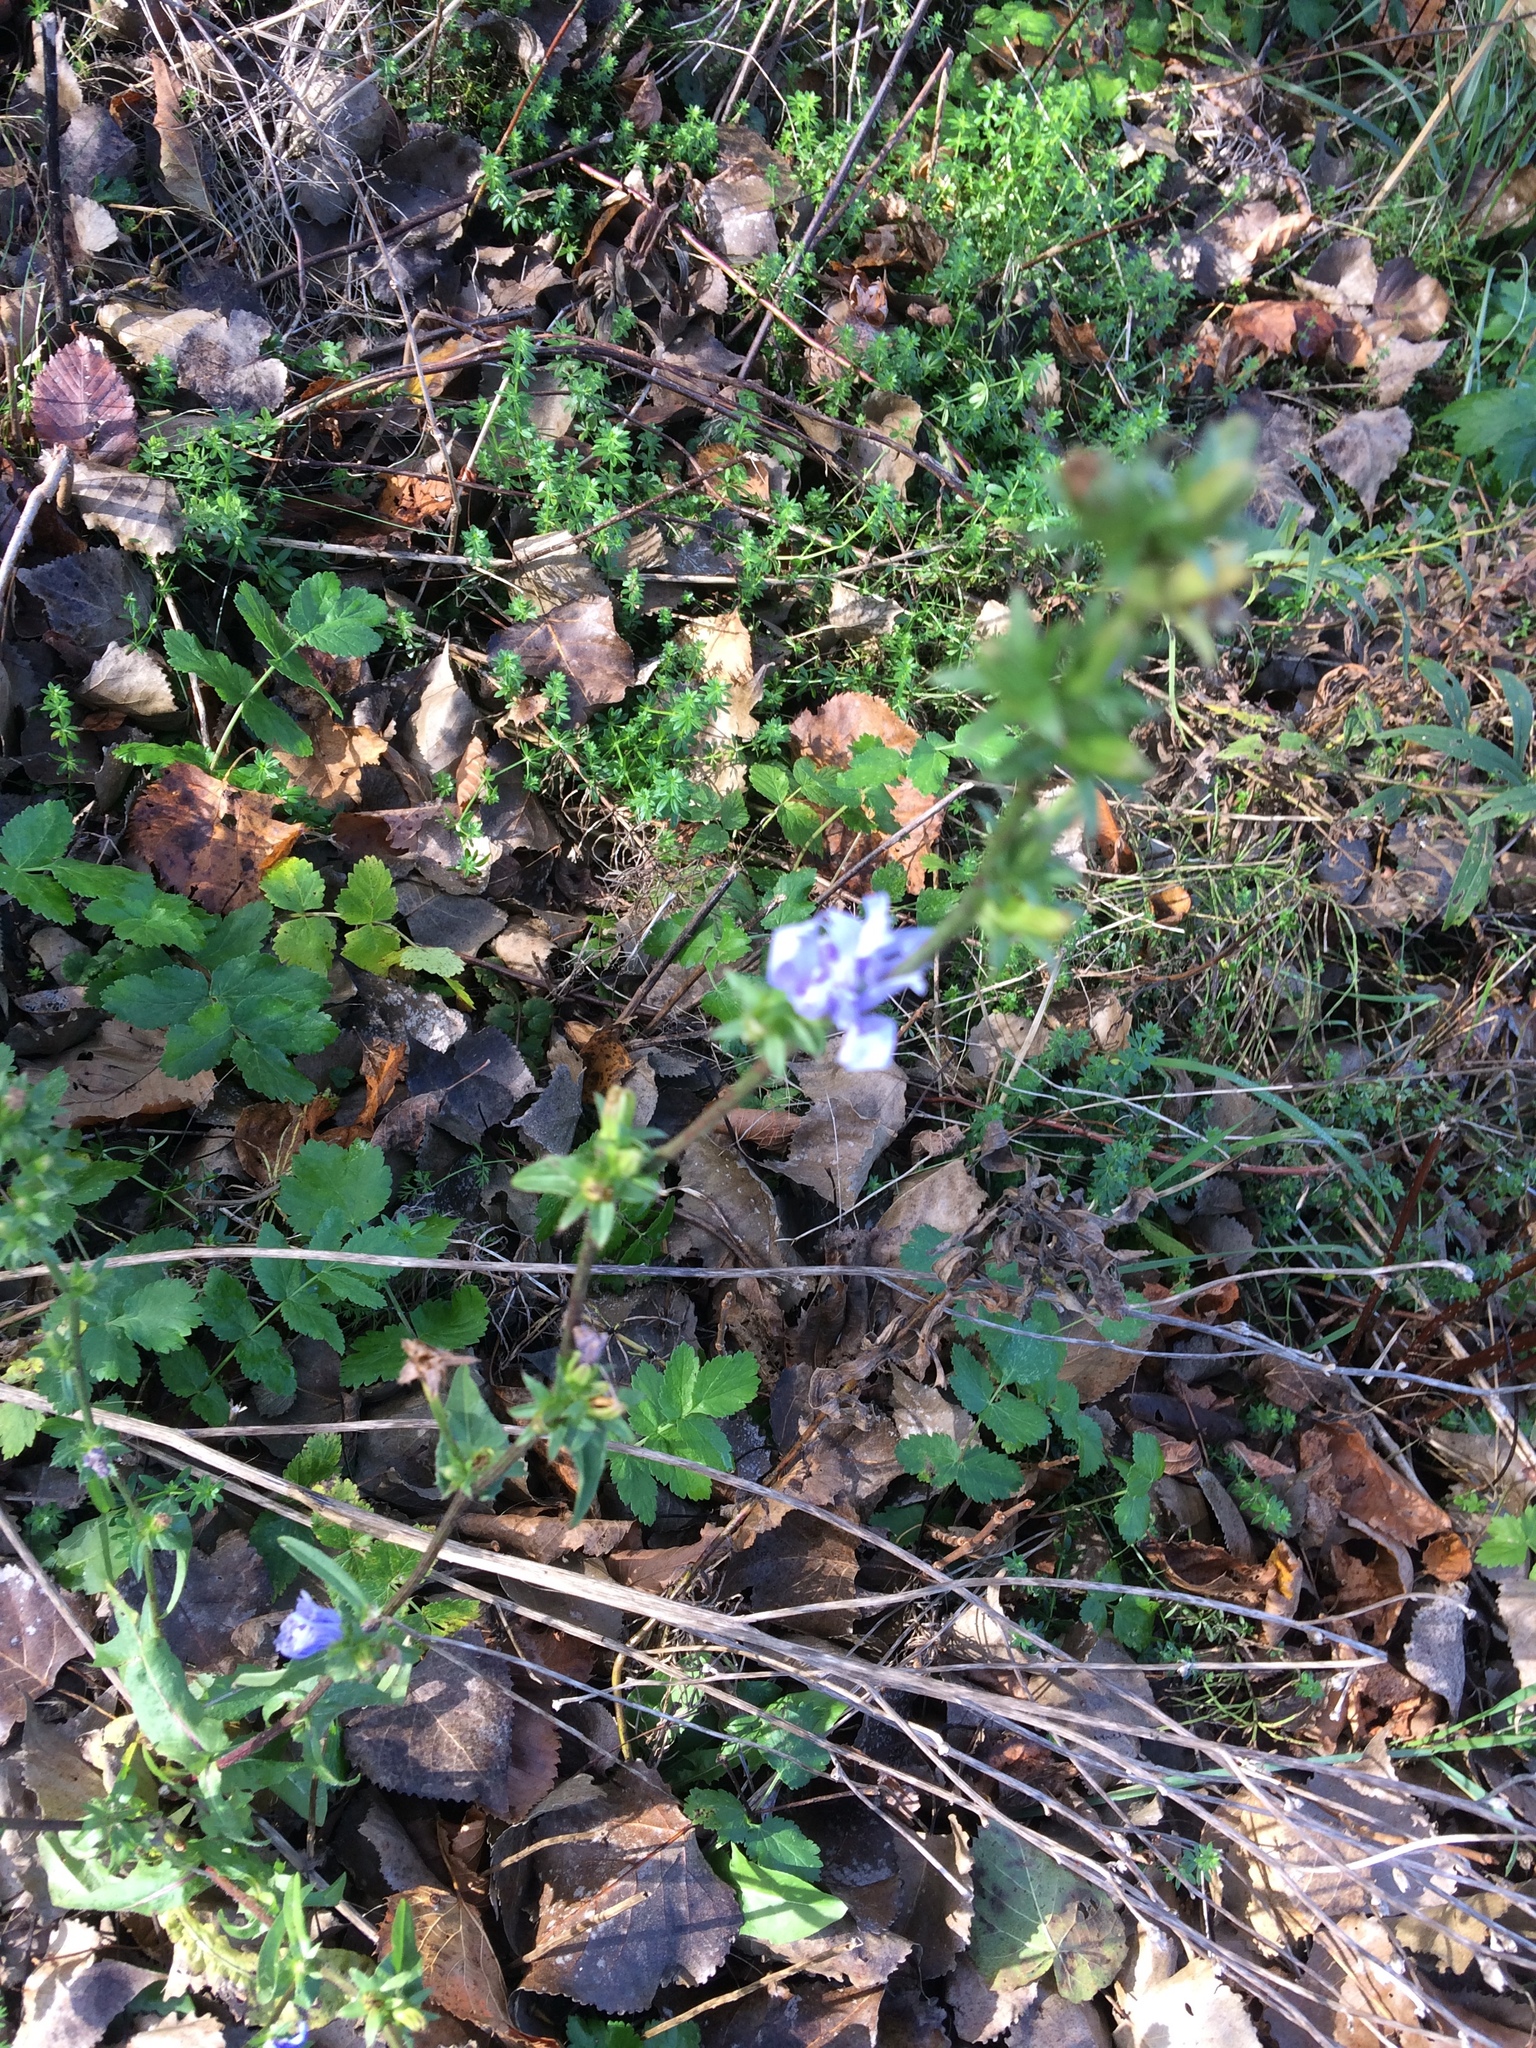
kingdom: Plantae
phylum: Tracheophyta
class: Magnoliopsida
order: Asterales
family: Asteraceae
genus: Cichorium
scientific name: Cichorium intybus
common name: Chicory
